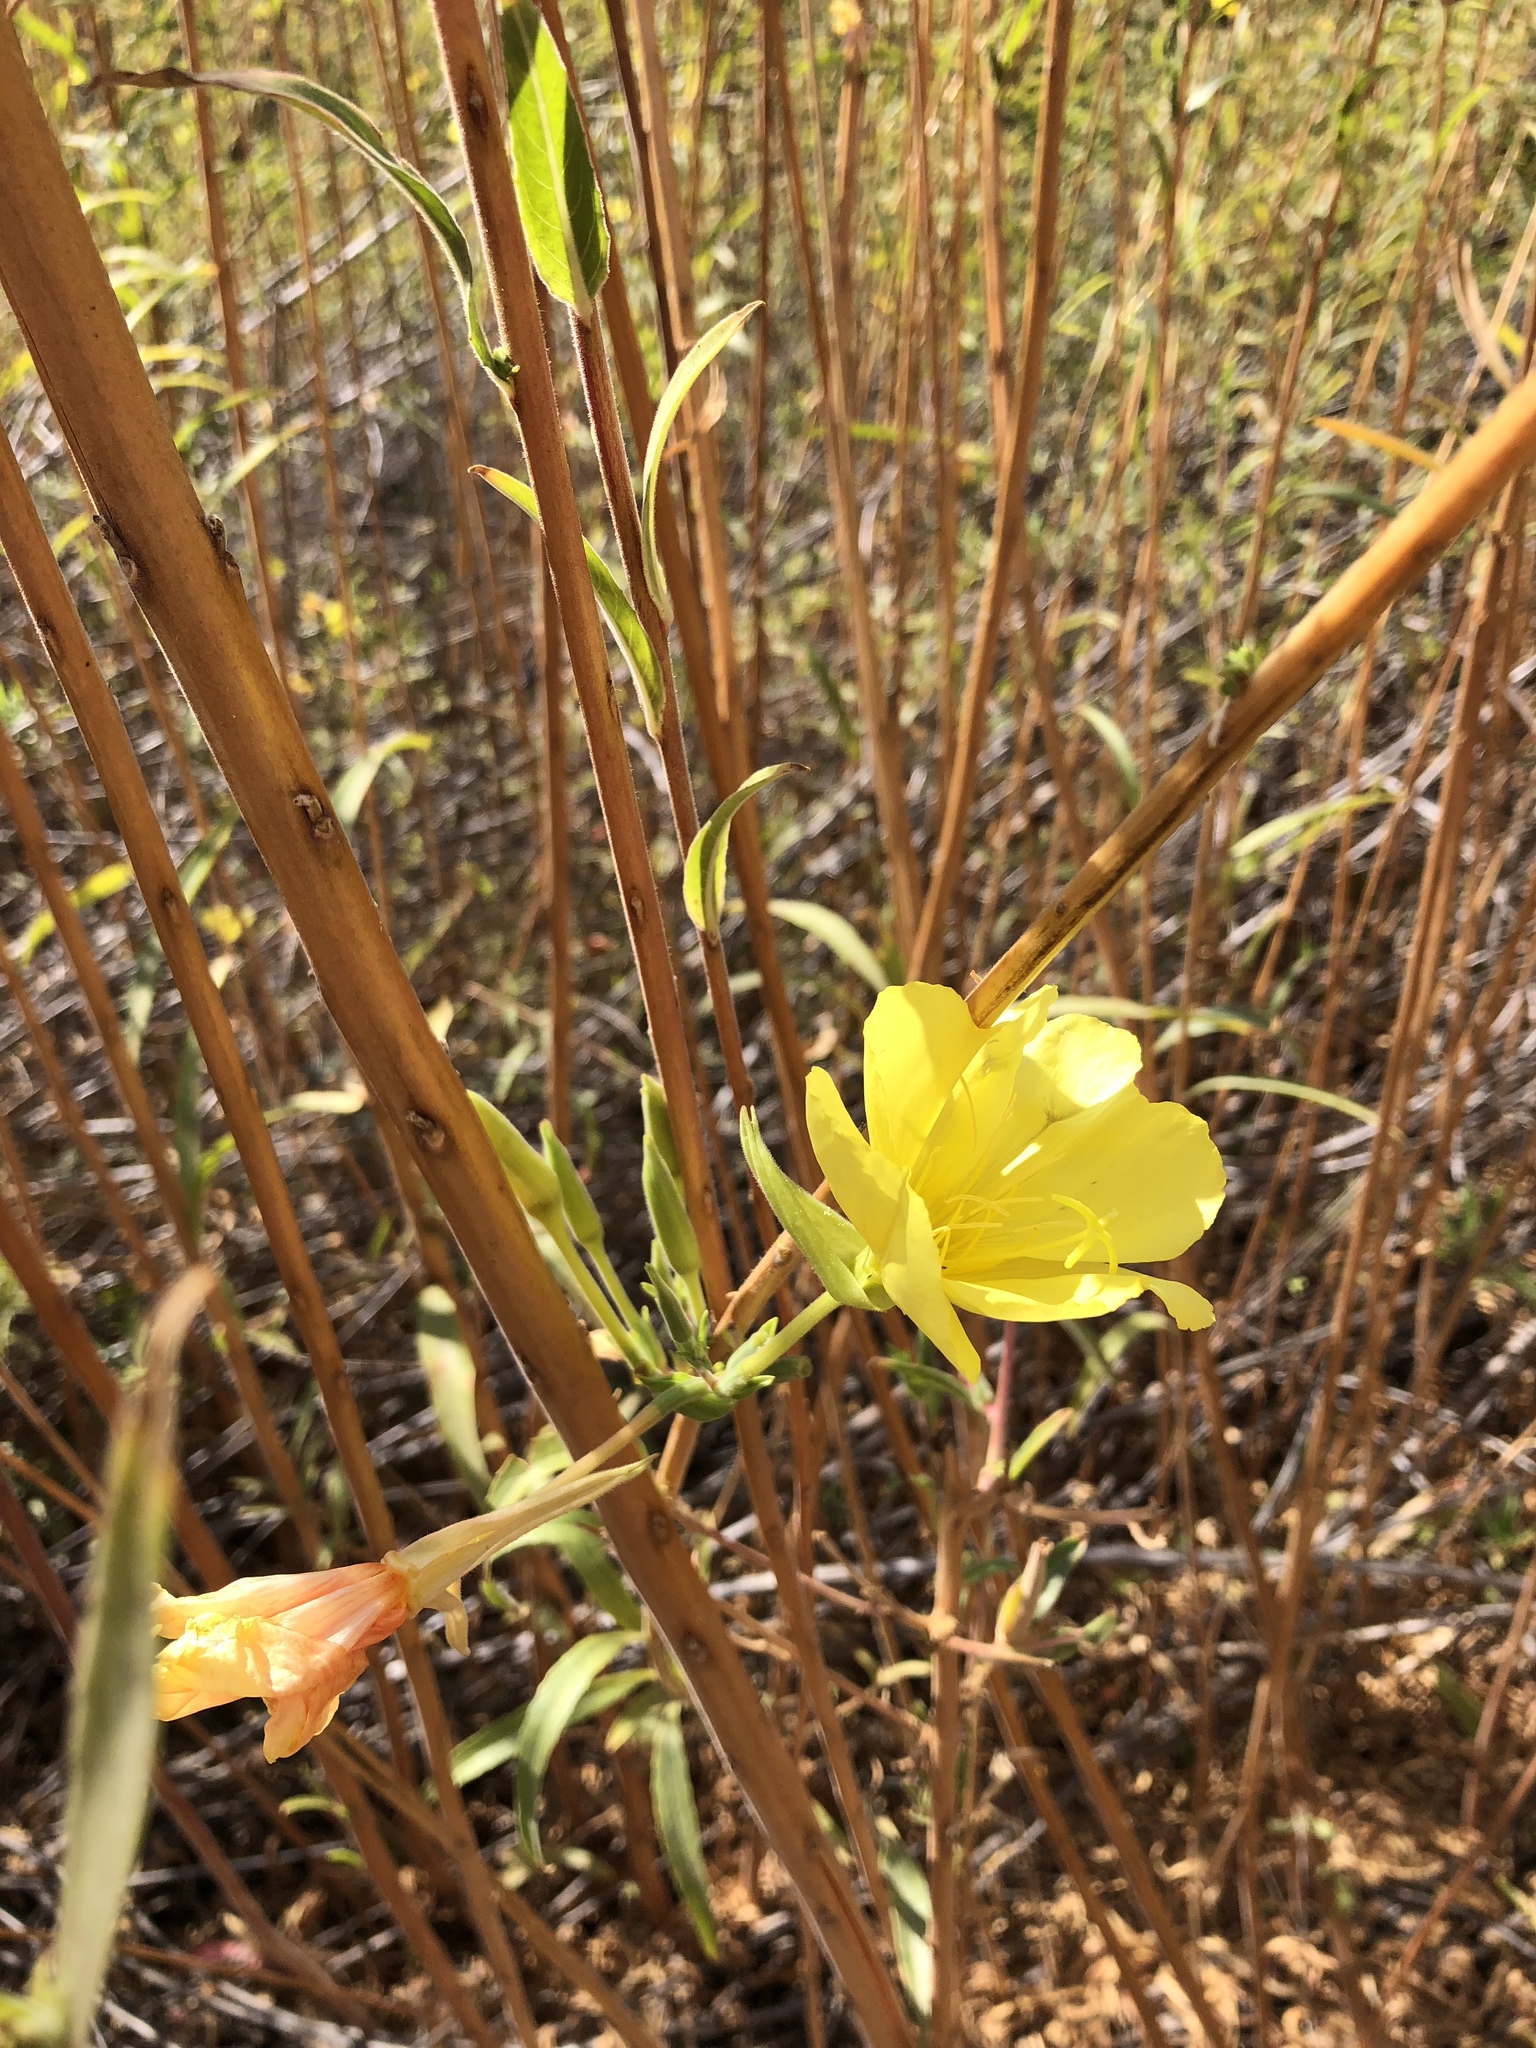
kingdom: Plantae
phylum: Tracheophyta
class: Magnoliopsida
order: Myrtales
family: Onagraceae
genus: Oenothera
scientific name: Oenothera elata
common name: Hooker's evening-primrose
